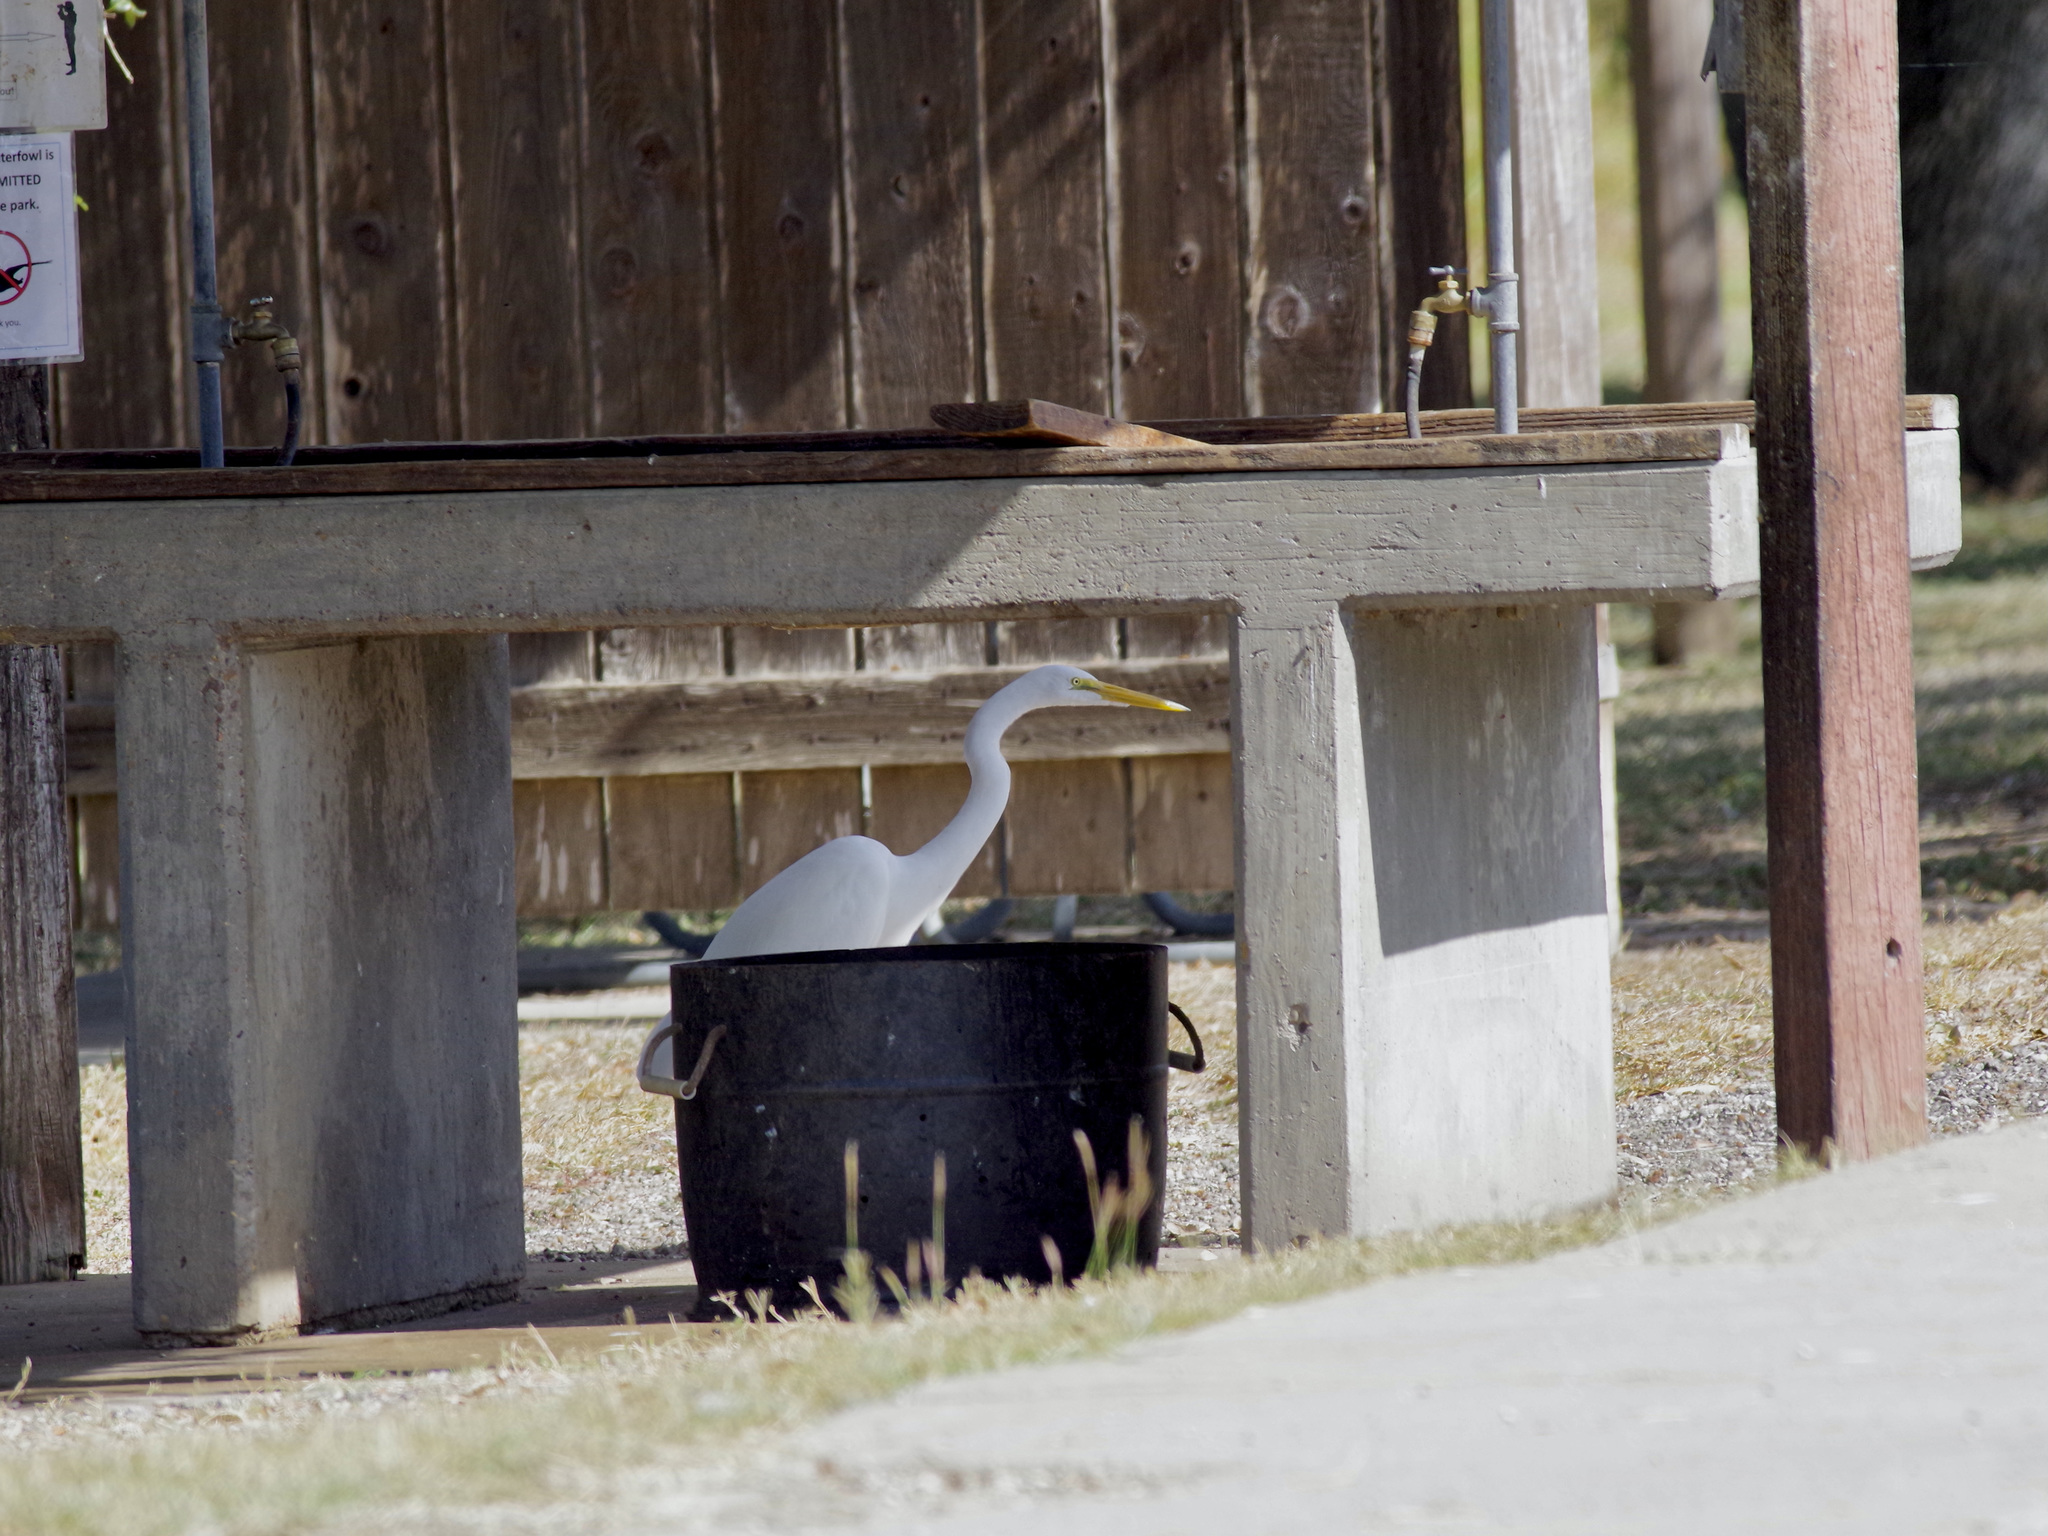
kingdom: Animalia
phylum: Chordata
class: Aves
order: Pelecaniformes
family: Ardeidae
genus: Ardea
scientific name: Ardea alba
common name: Great egret
